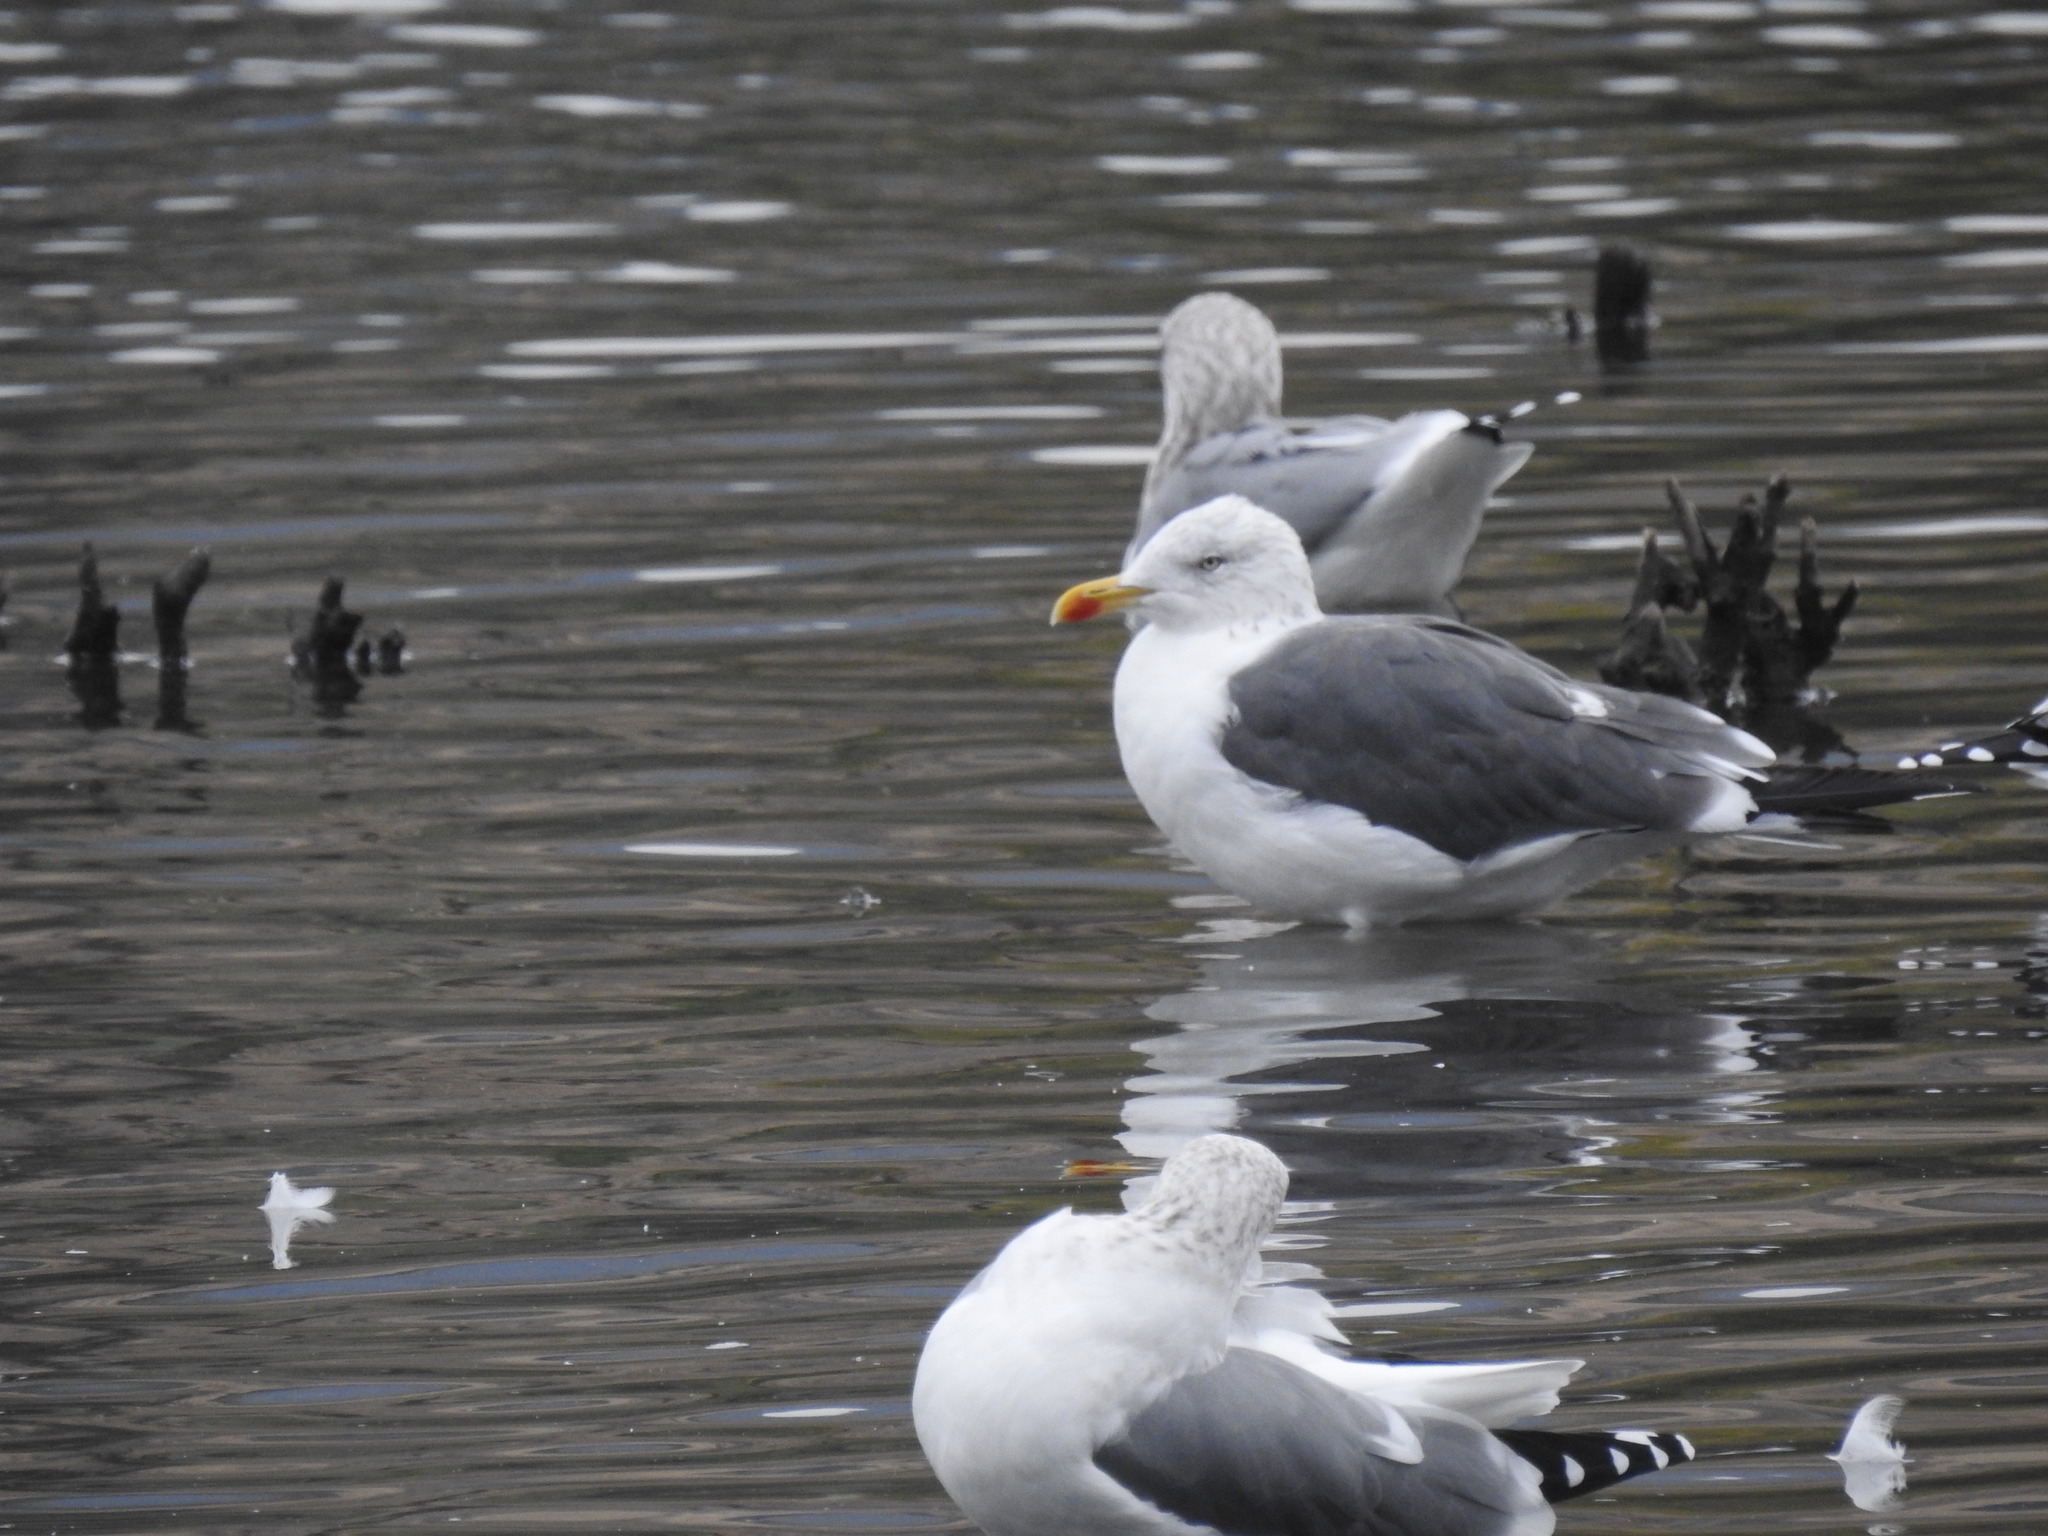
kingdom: Animalia
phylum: Chordata
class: Aves
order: Charadriiformes
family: Laridae
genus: Larus
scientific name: Larus fuscus
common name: Lesser black-backed gull
